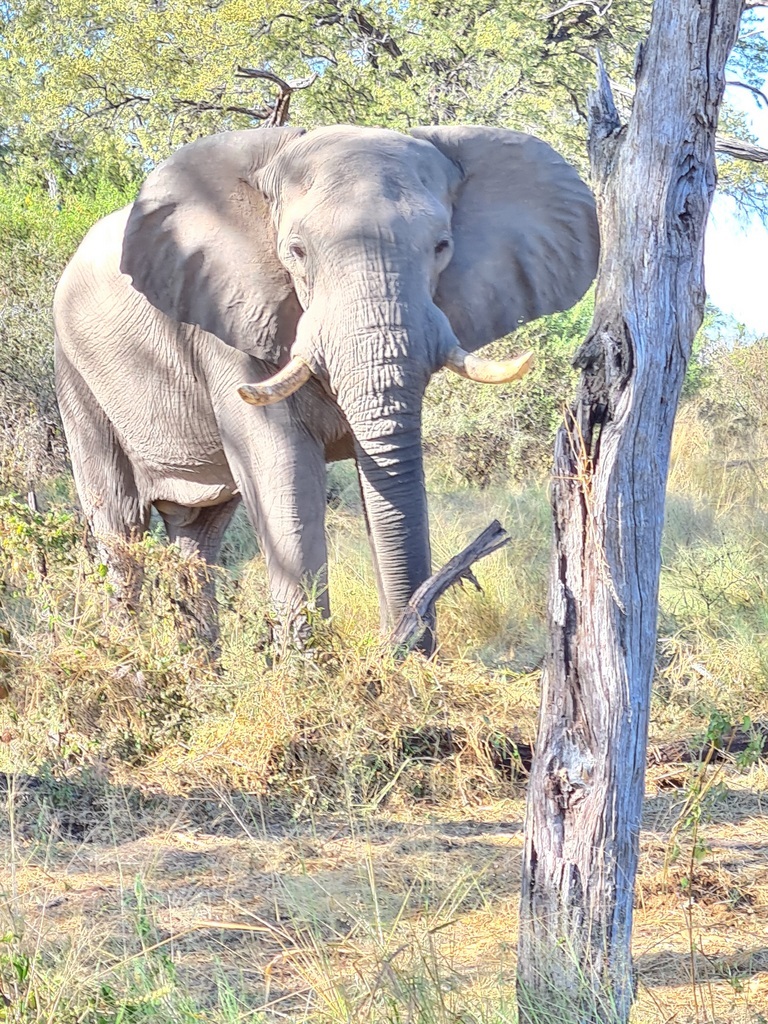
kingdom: Animalia
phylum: Chordata
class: Mammalia
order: Proboscidea
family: Elephantidae
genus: Loxodonta
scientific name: Loxodonta africana
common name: African elephant
